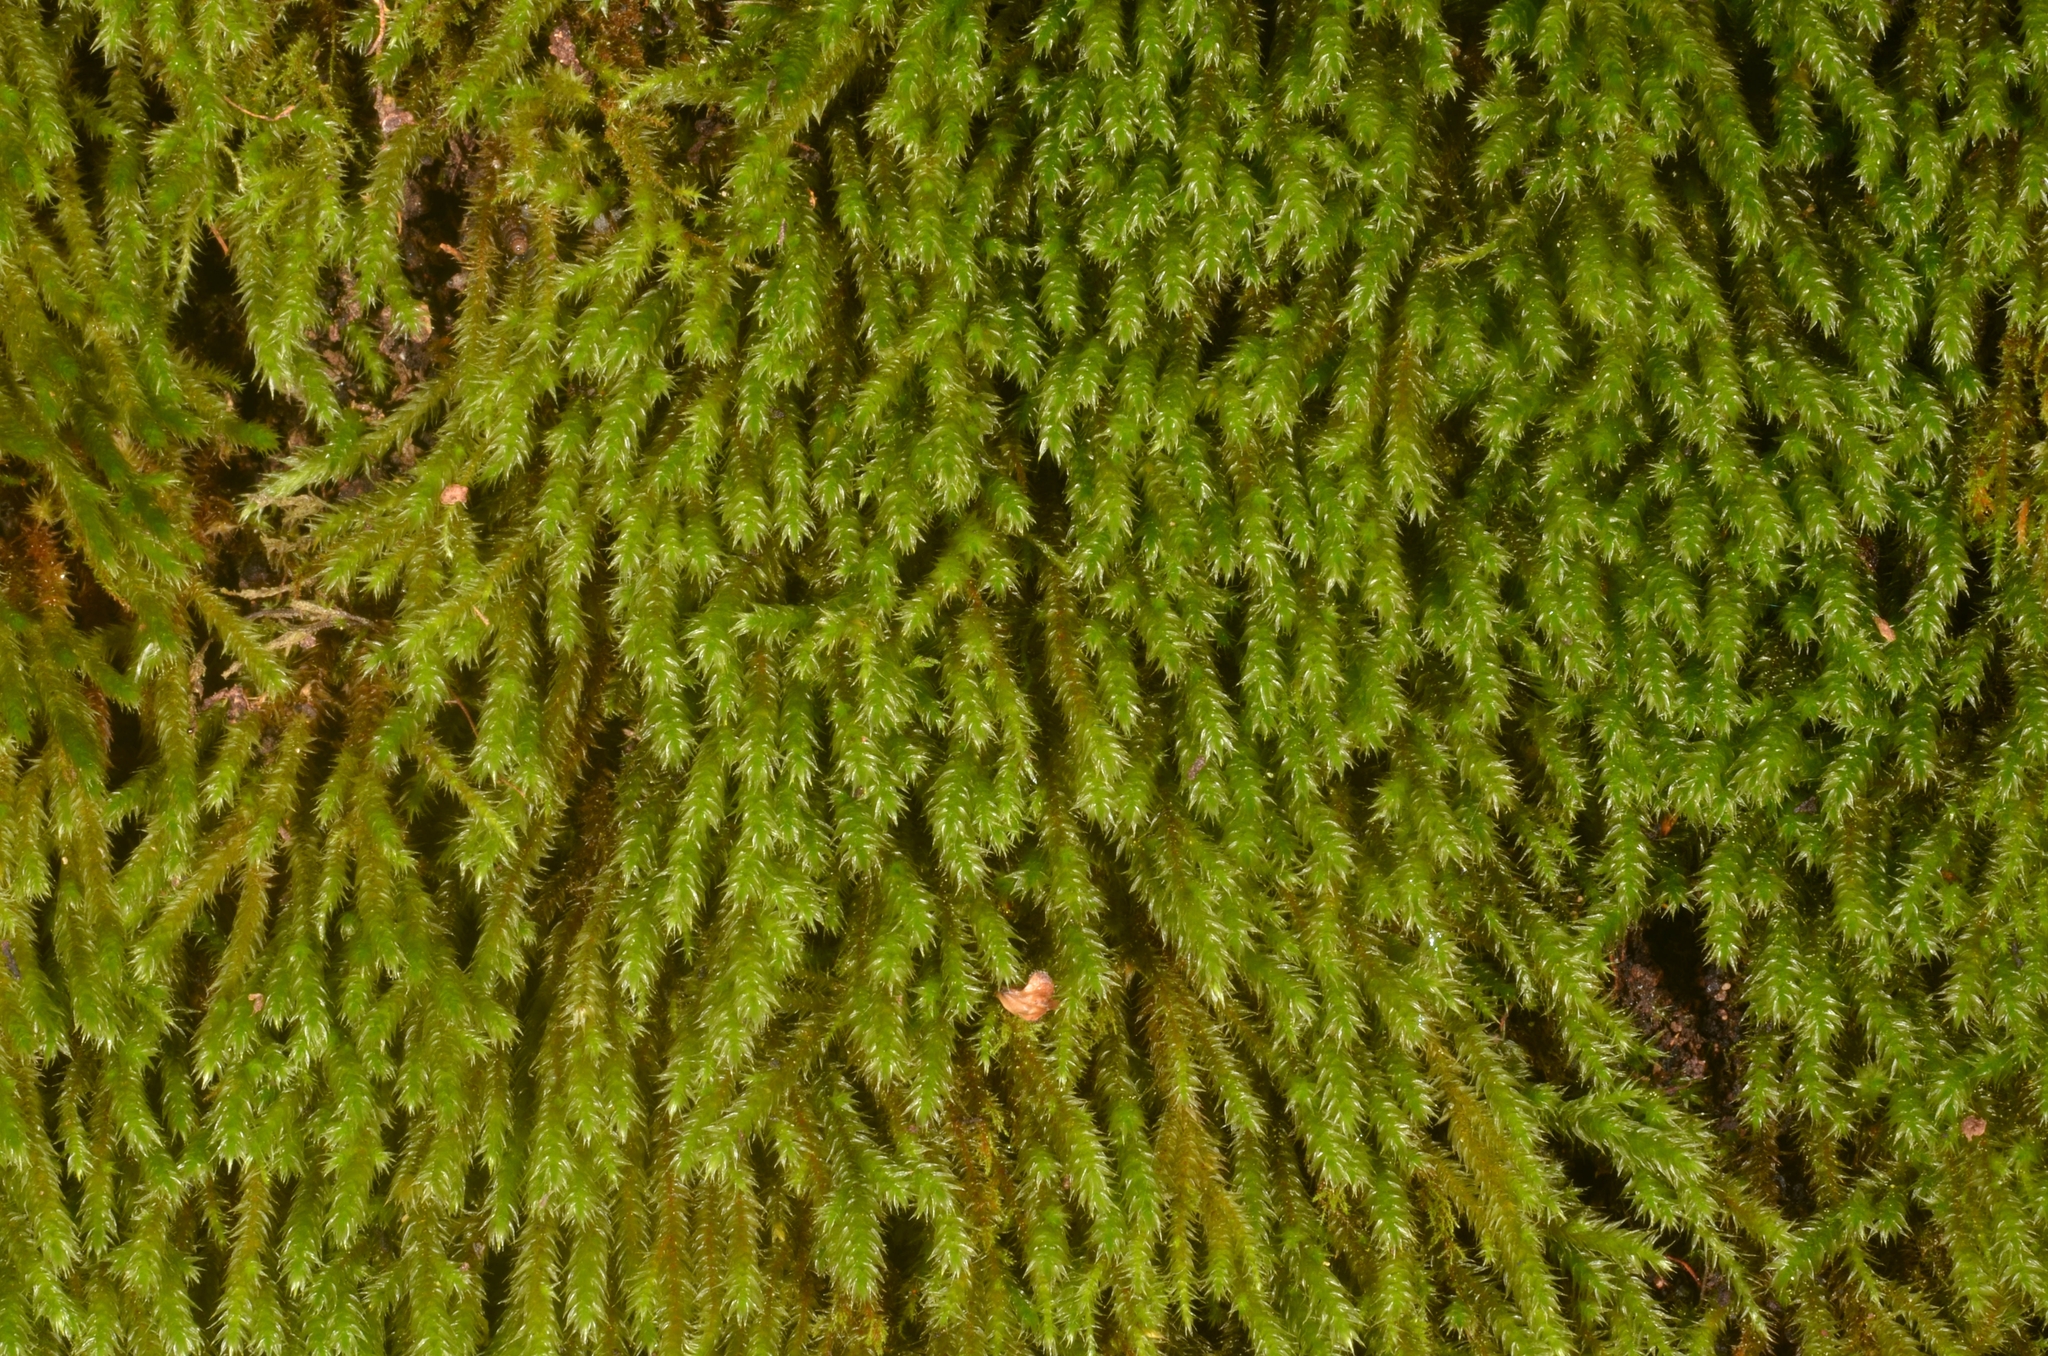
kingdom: Plantae
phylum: Bryophyta
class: Bryopsida
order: Hypnales
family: Leucodontaceae
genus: Leucodon
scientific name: Leucodon sciuroides
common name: Squirrel-tail moss
